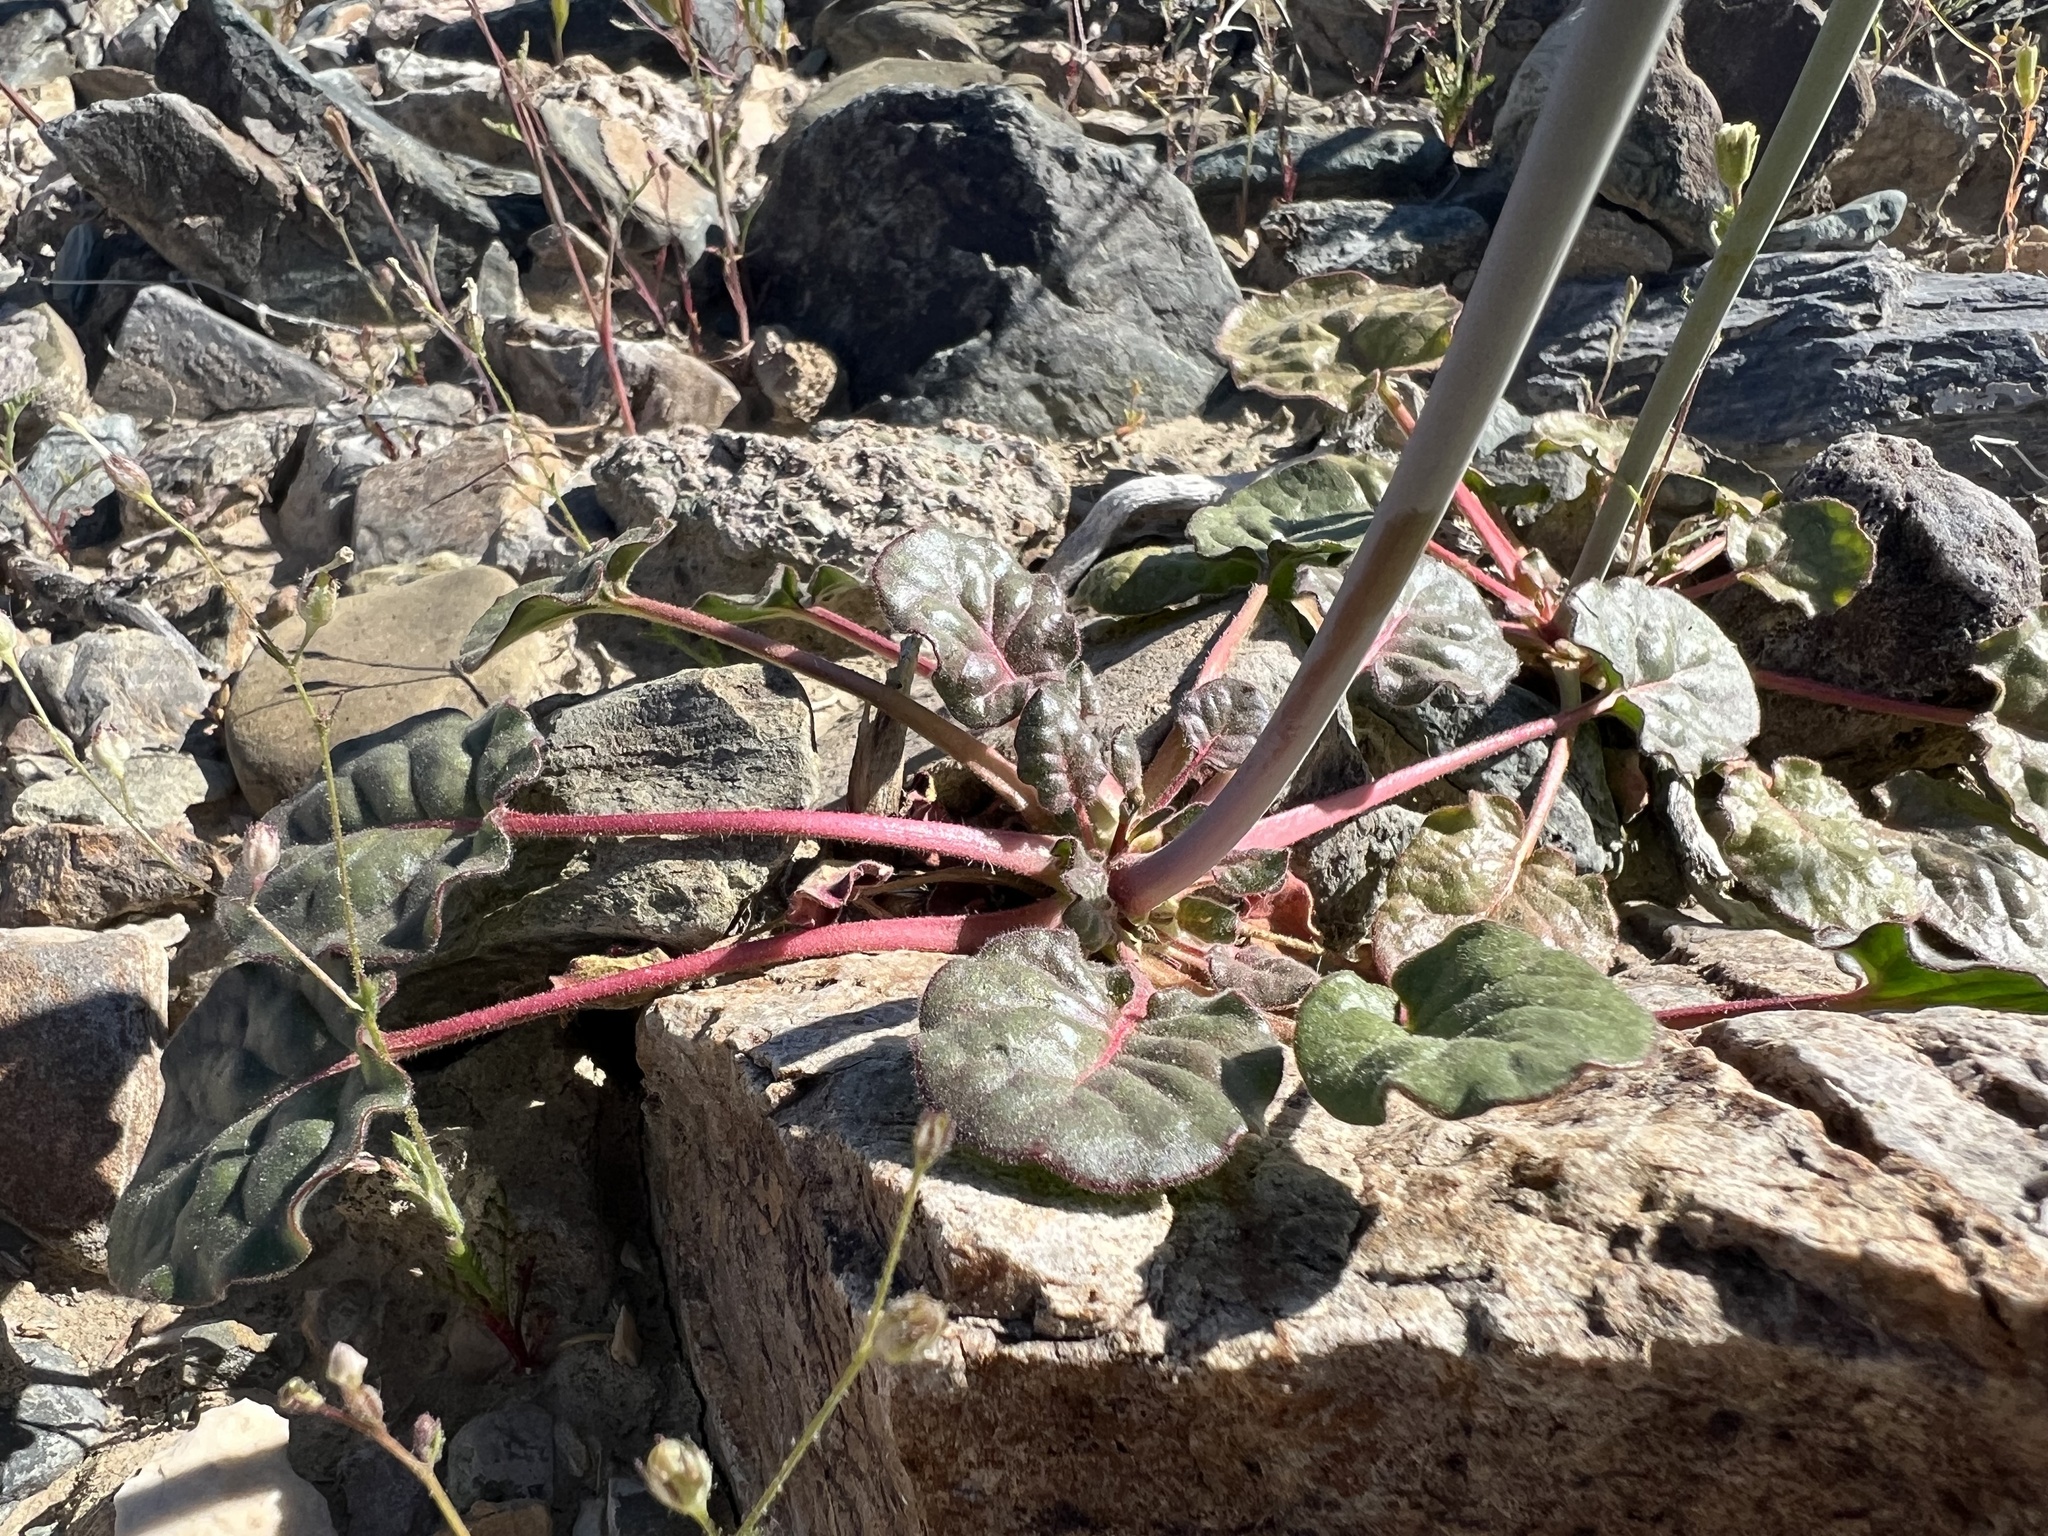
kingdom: Plantae
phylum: Tracheophyta
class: Magnoliopsida
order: Caryophyllales
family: Polygonaceae
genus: Eriogonum
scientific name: Eriogonum inflatum
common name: Desert trumpet
